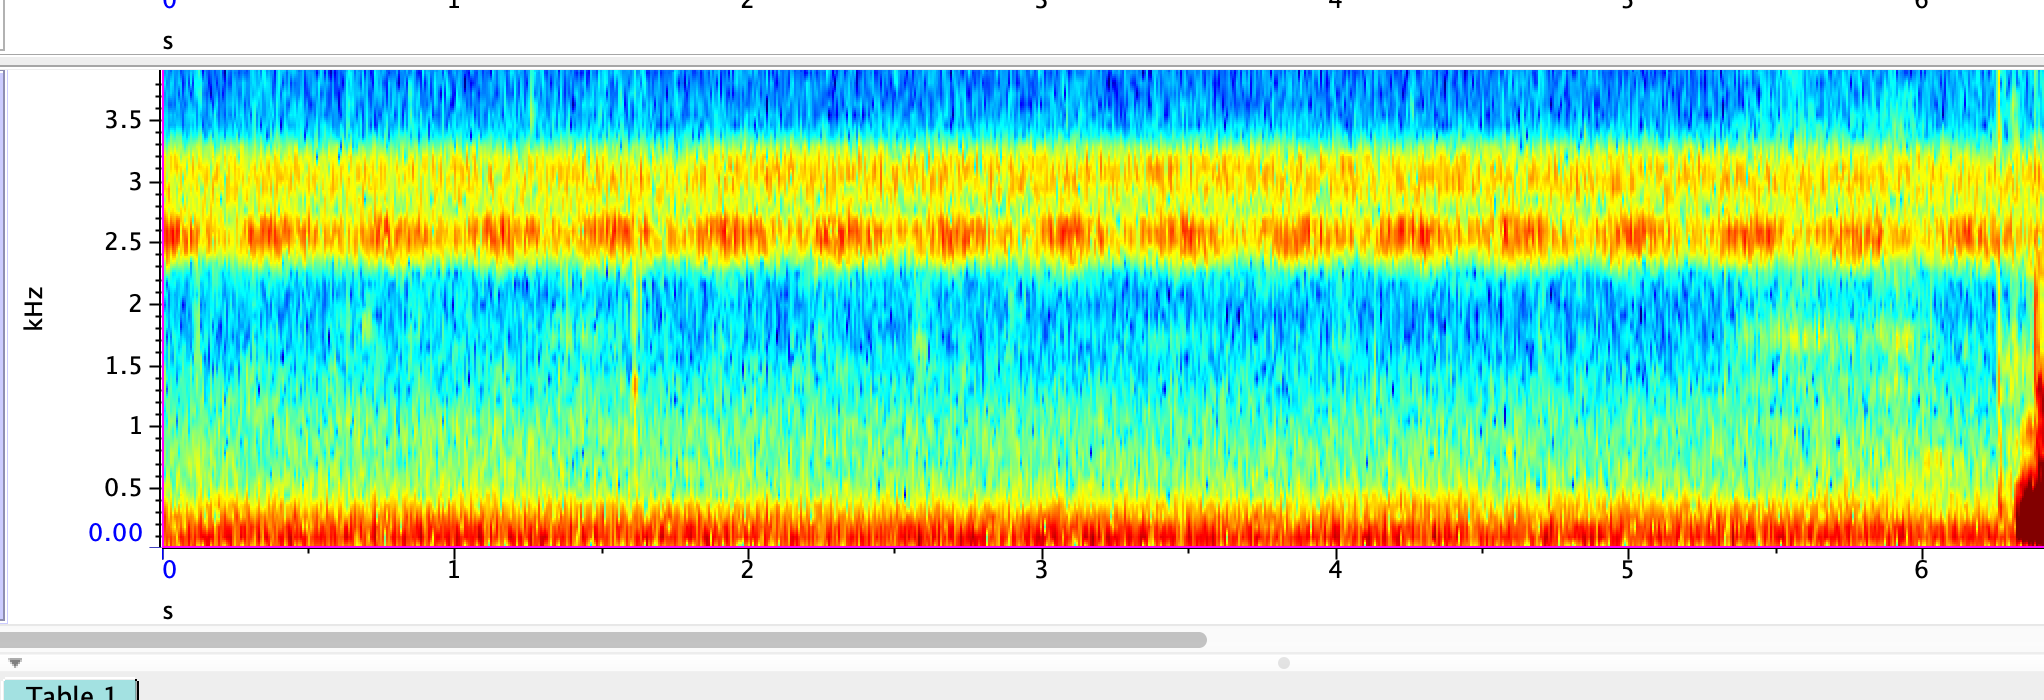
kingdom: Animalia
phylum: Arthropoda
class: Insecta
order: Orthoptera
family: Gryllidae
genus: Oecanthus
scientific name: Oecanthus fultoni
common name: Snowy tree cricket
